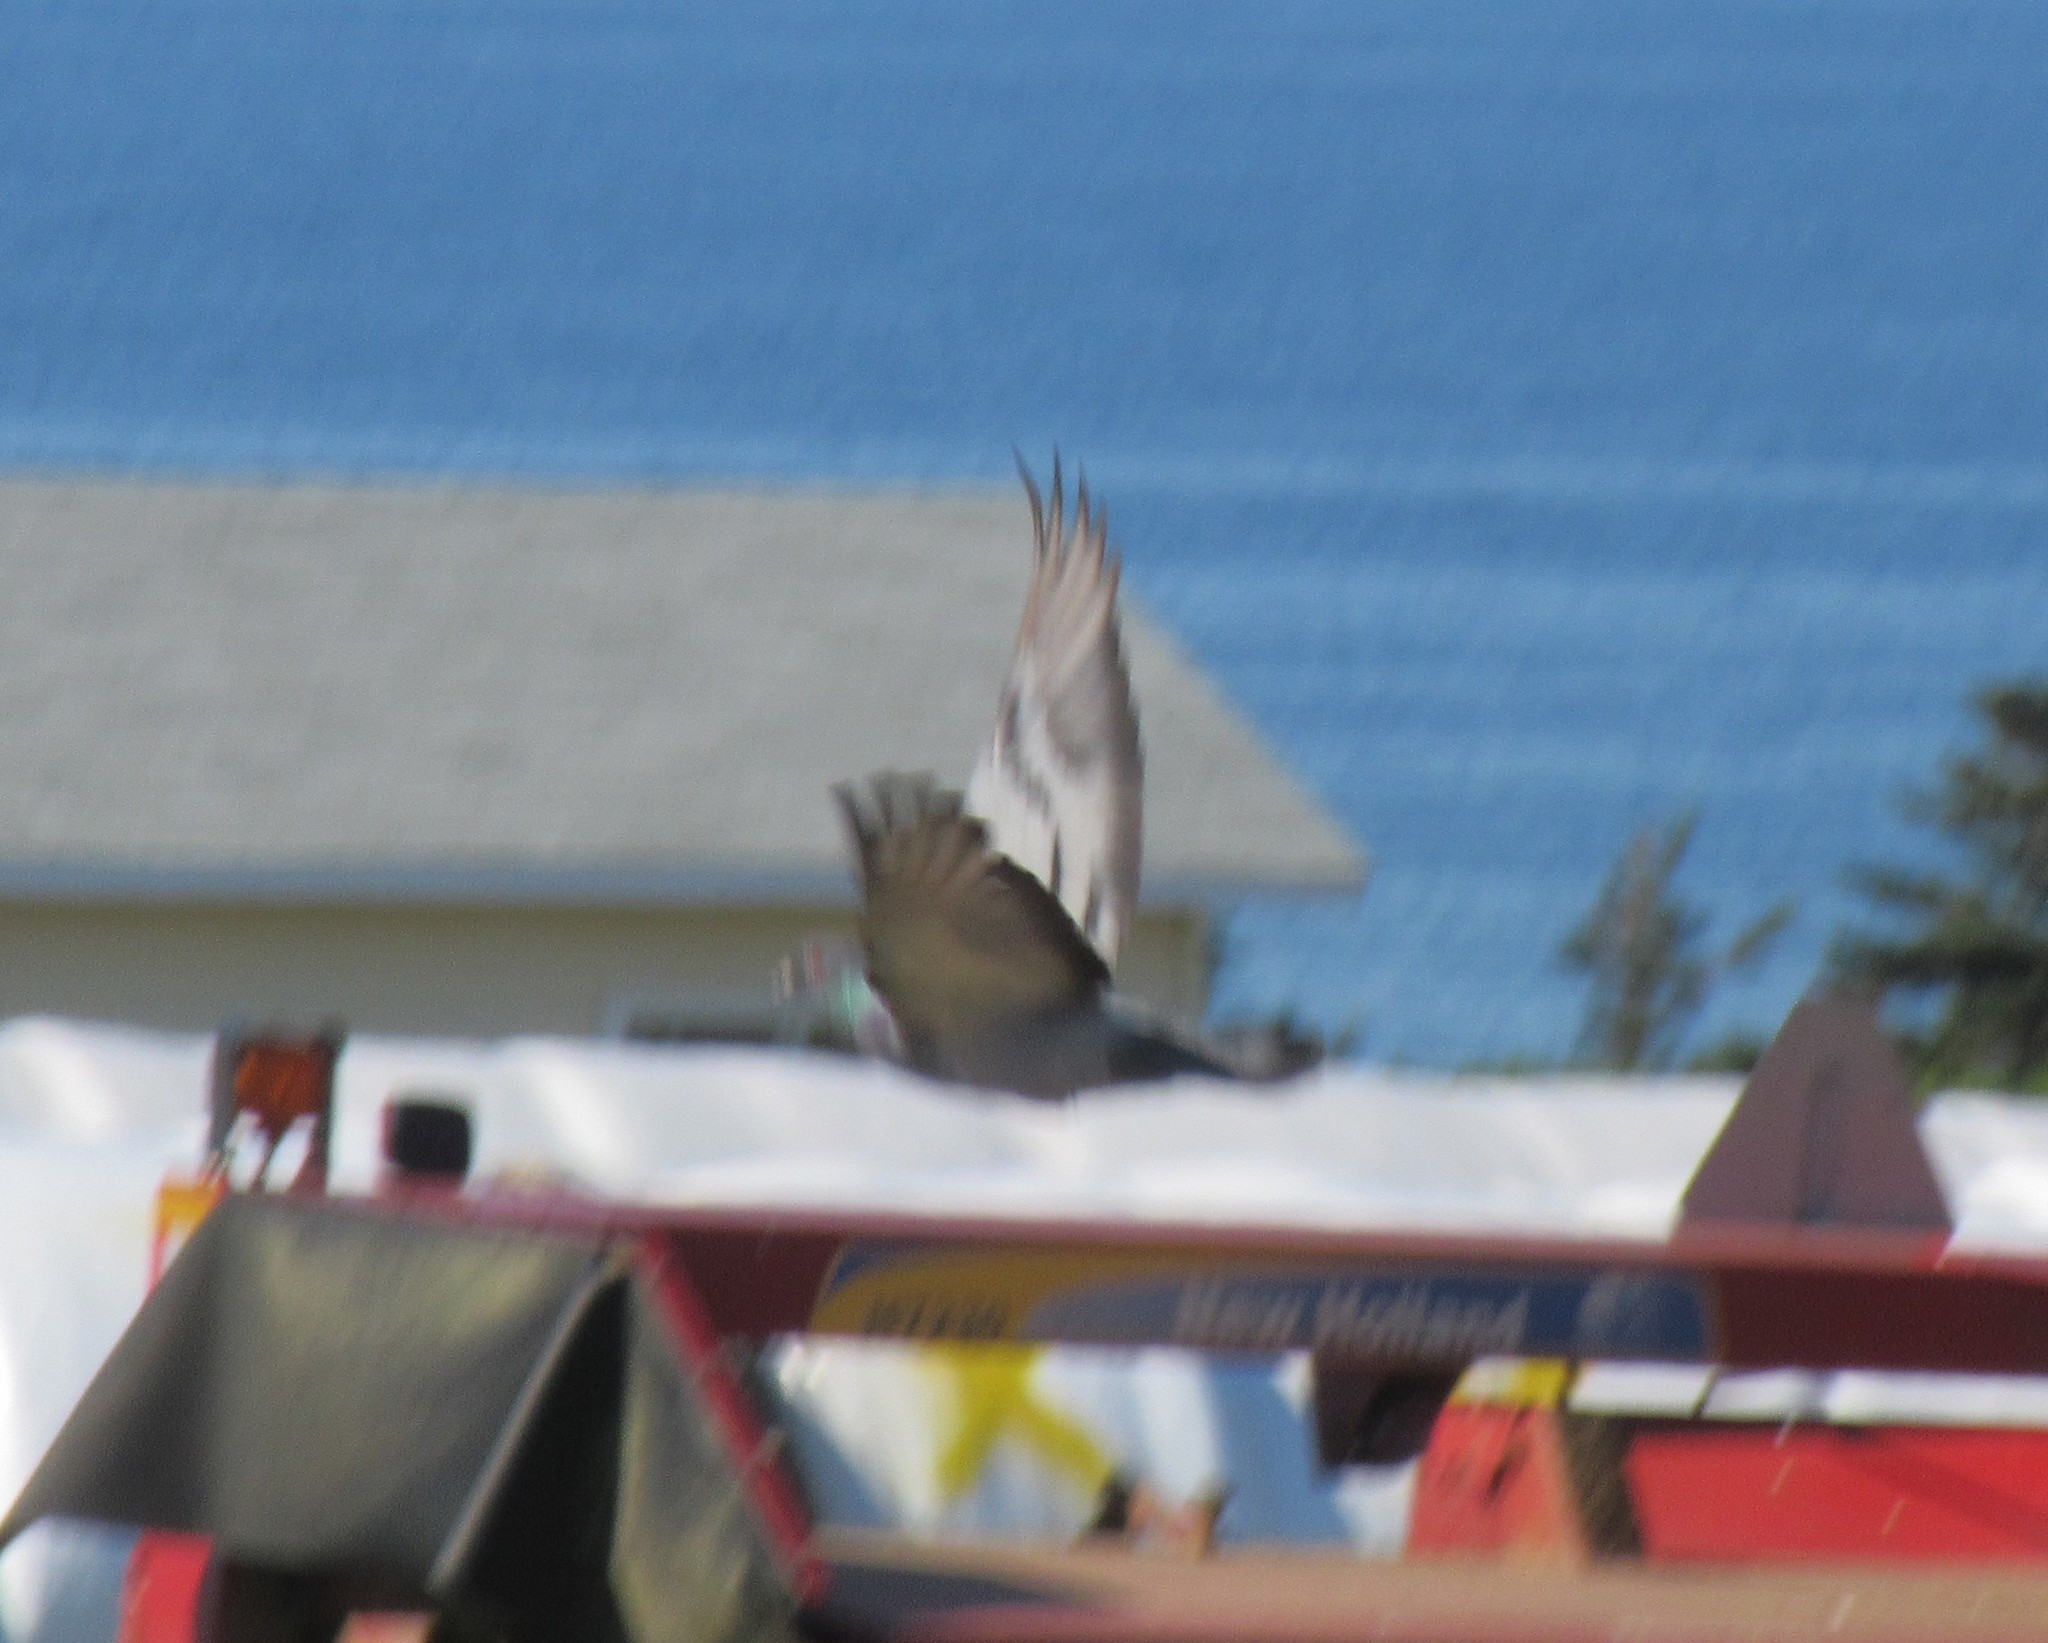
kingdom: Animalia
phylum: Chordata
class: Aves
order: Columbiformes
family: Columbidae
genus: Columba
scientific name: Columba livia
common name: Rock pigeon
